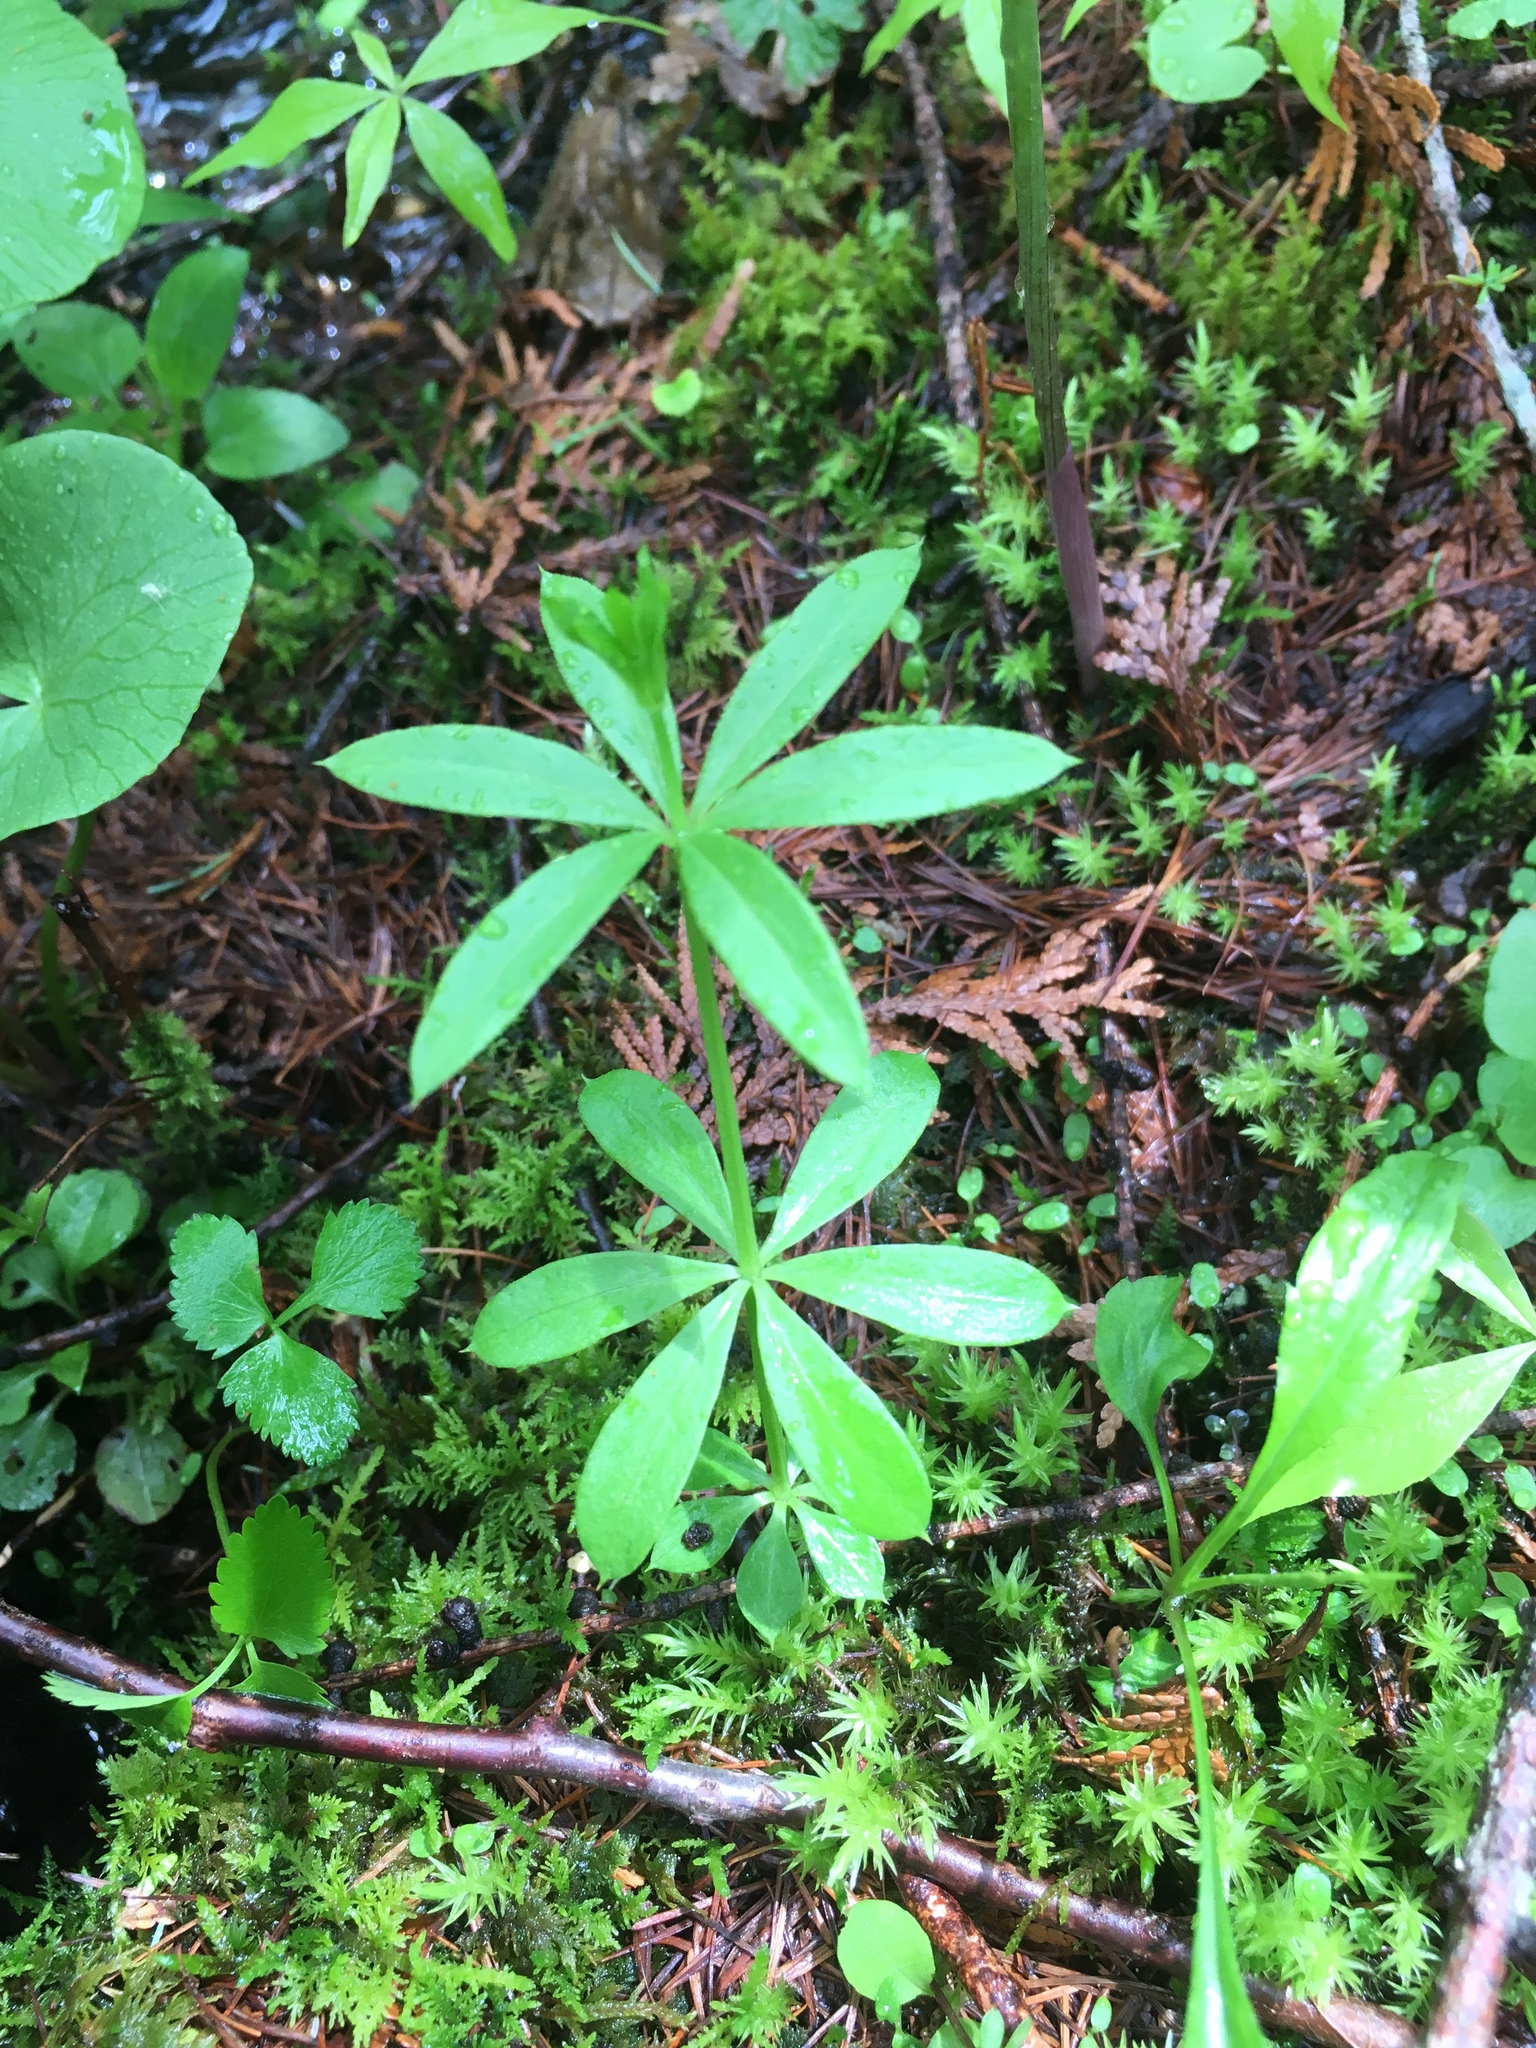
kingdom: Plantae
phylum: Tracheophyta
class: Magnoliopsida
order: Gentianales
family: Rubiaceae
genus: Galium
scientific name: Galium triflorum
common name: Fragrant bedstraw
